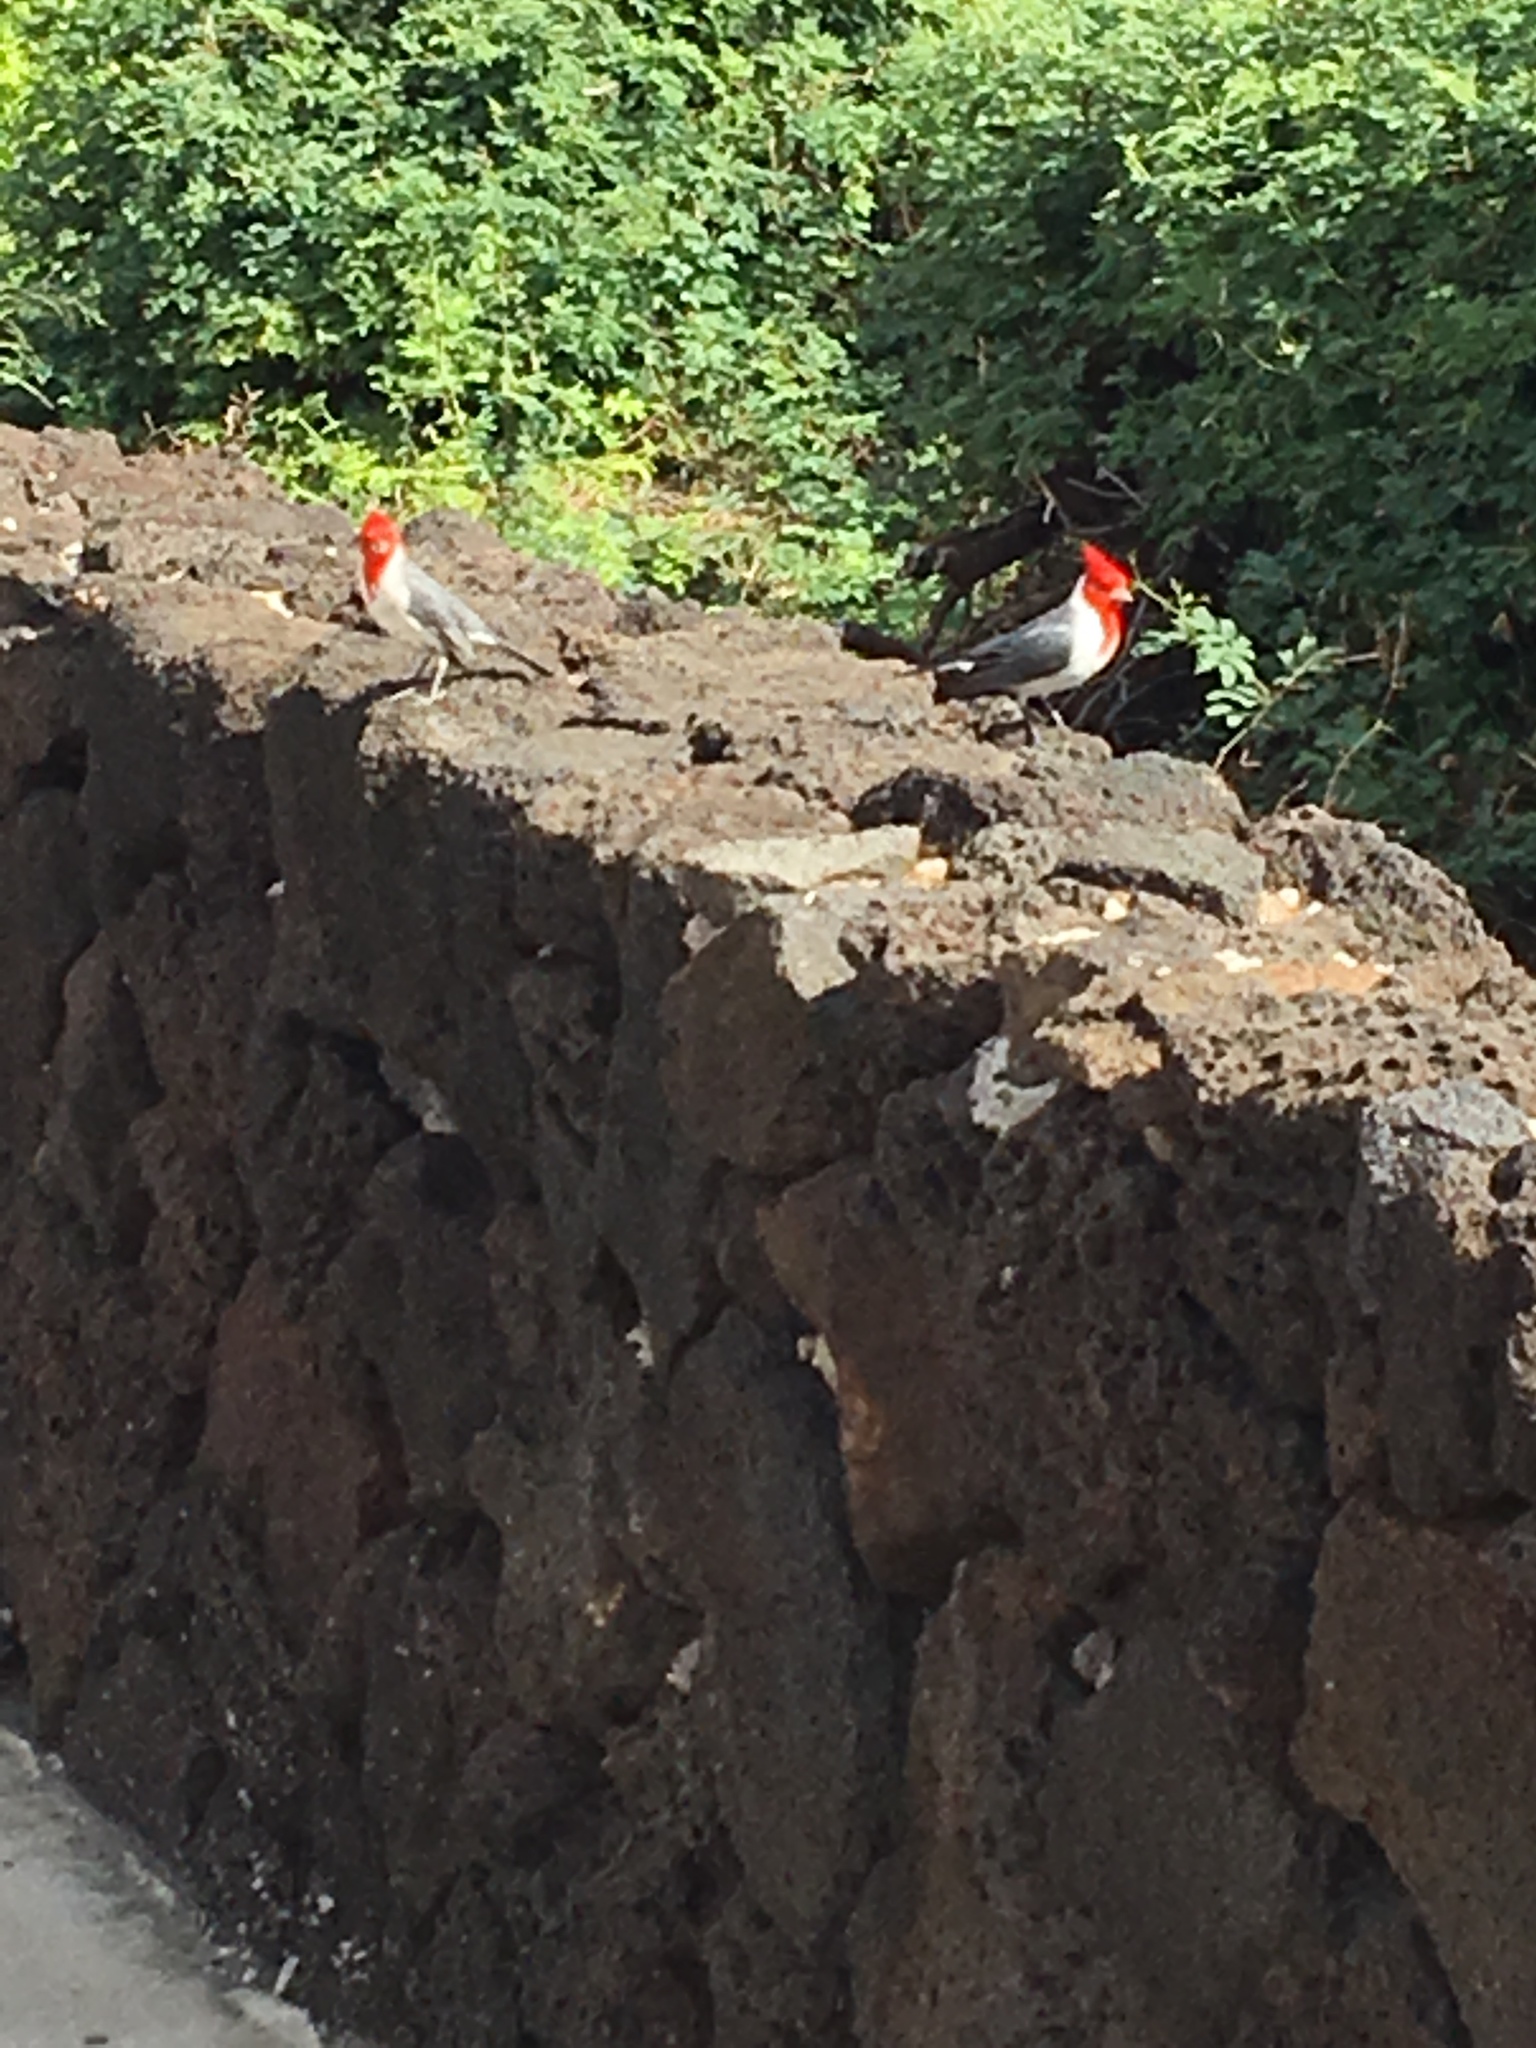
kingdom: Animalia
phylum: Chordata
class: Aves
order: Passeriformes
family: Thraupidae
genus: Paroaria
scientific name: Paroaria coronata
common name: Red-crested cardinal
